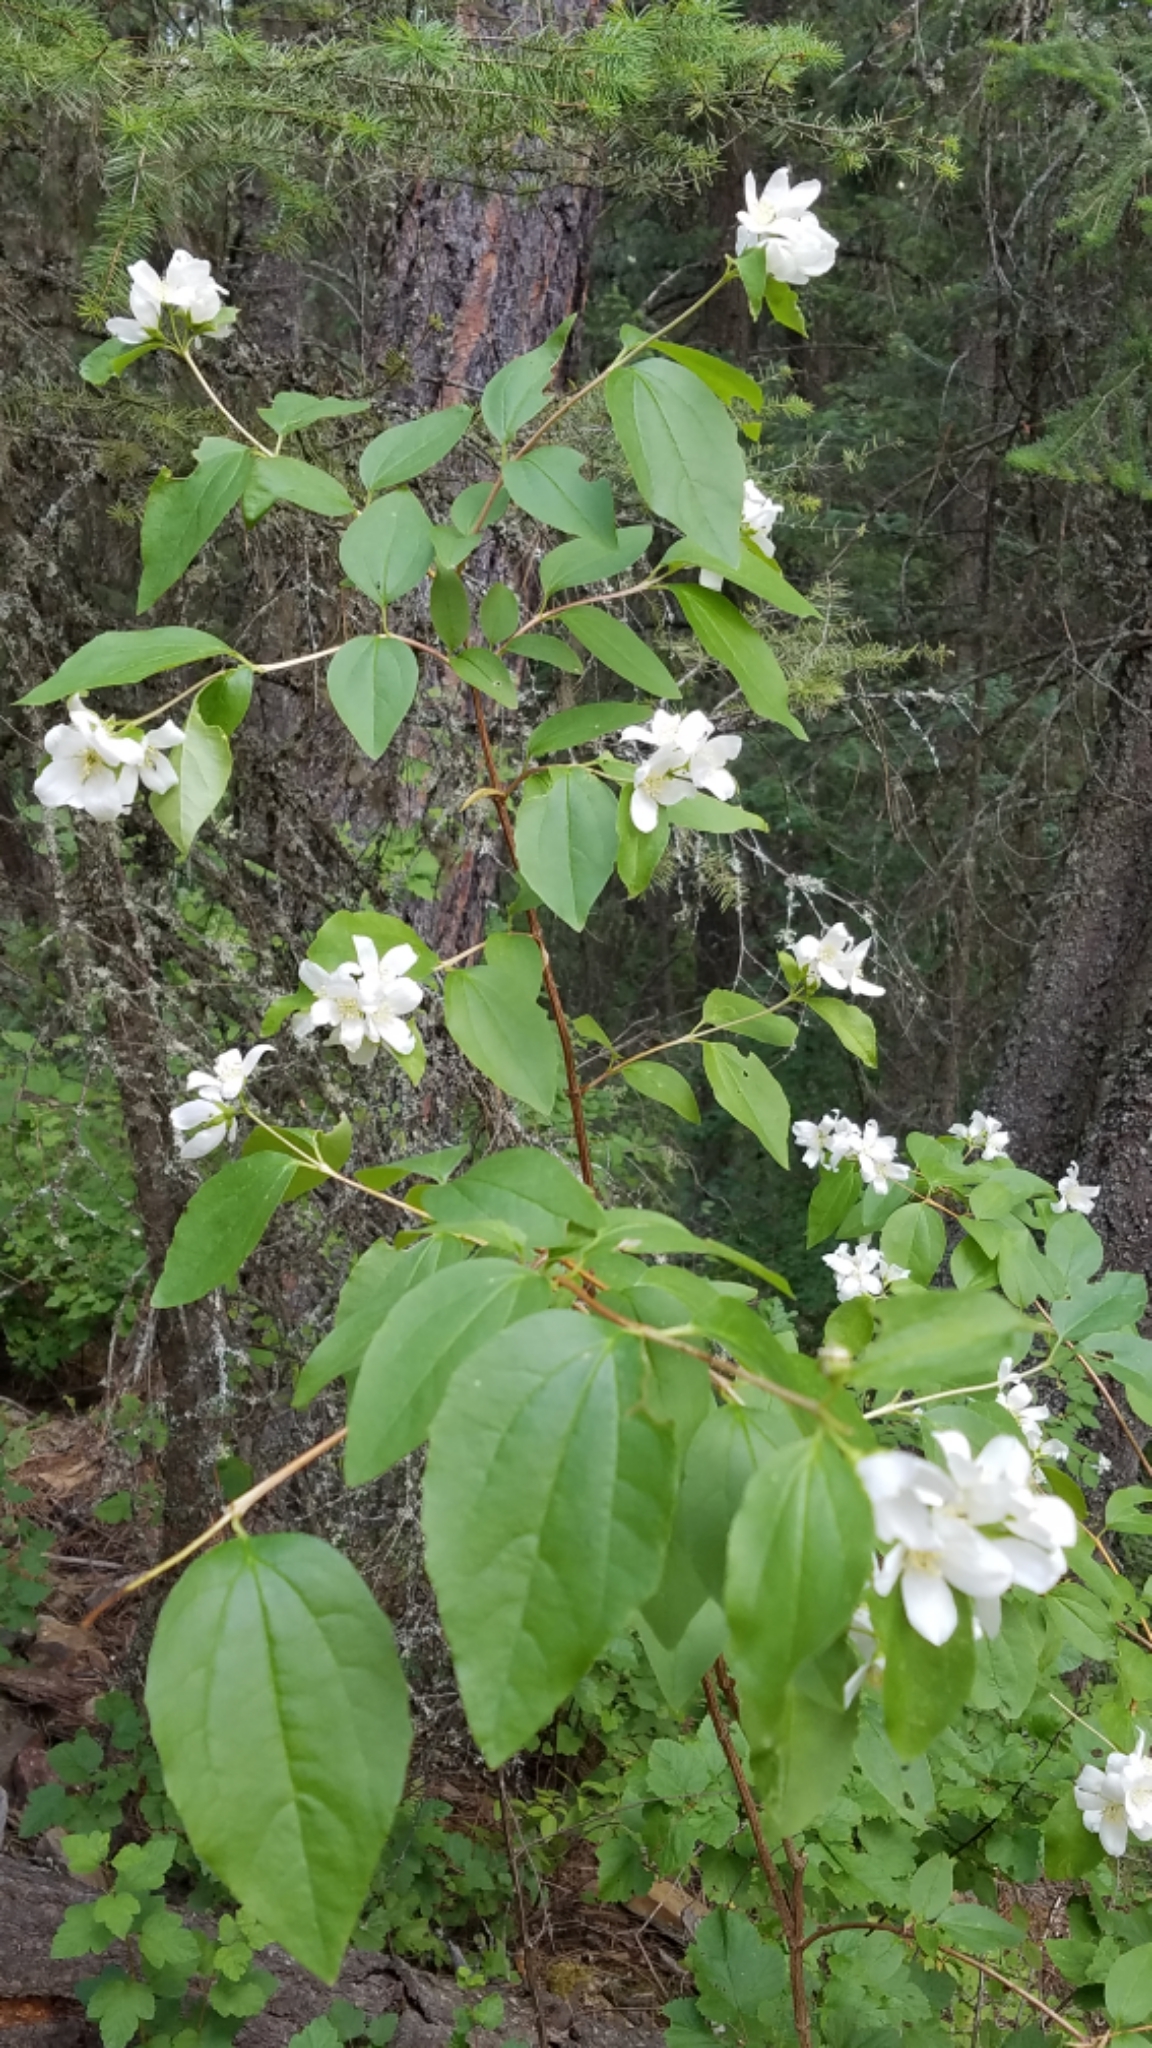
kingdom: Plantae
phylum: Tracheophyta
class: Magnoliopsida
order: Cornales
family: Hydrangeaceae
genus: Philadelphus
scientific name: Philadelphus lewisii
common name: Lewis's mock orange
